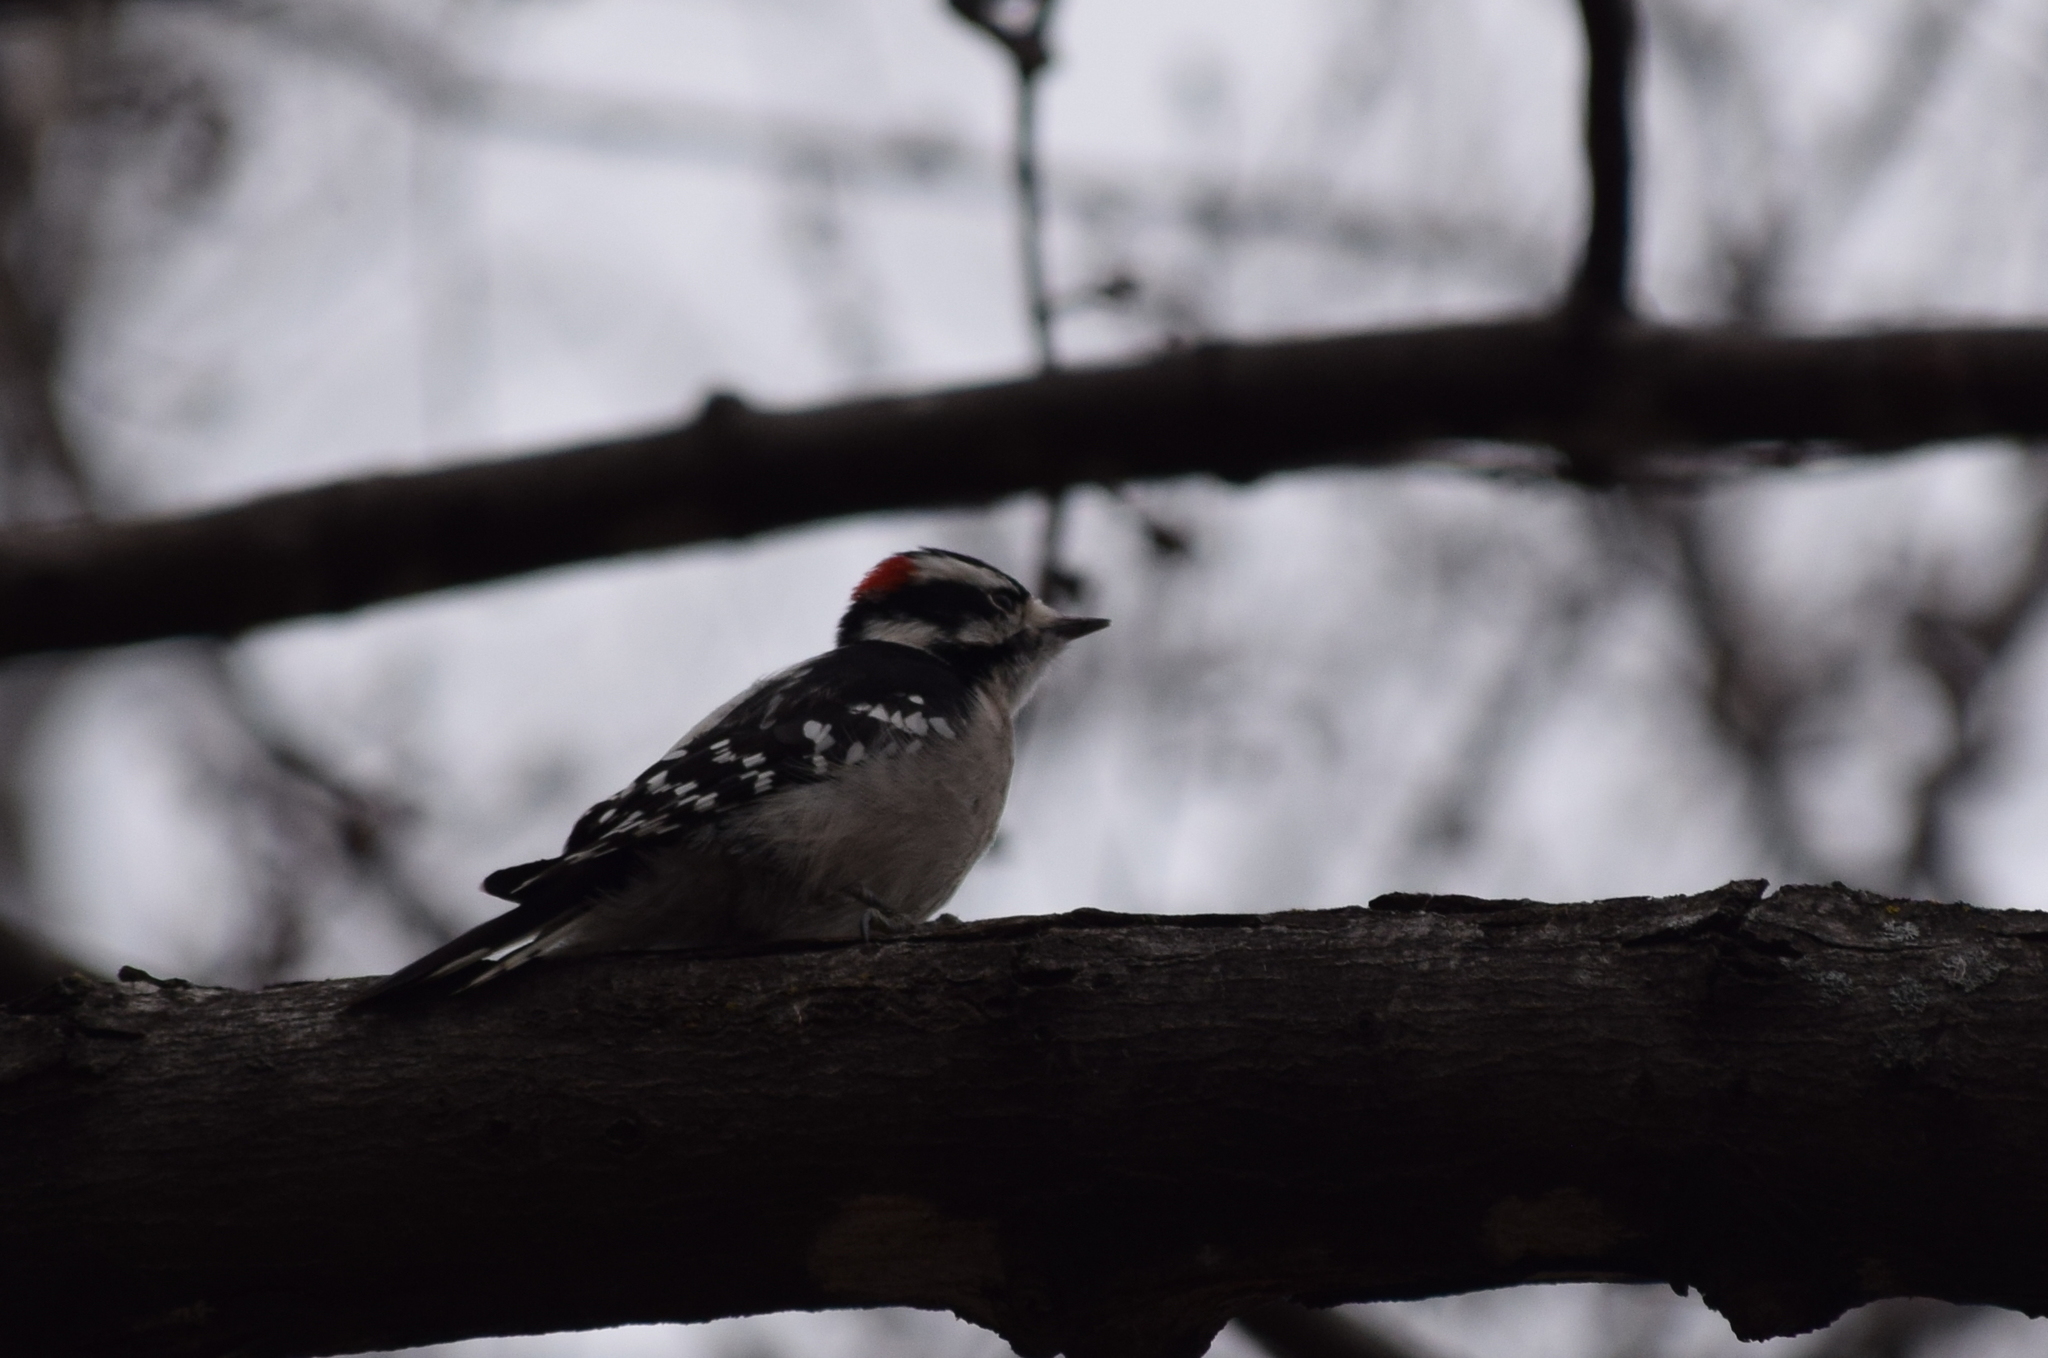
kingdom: Animalia
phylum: Chordata
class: Aves
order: Piciformes
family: Picidae
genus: Dryobates
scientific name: Dryobates pubescens
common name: Downy woodpecker
